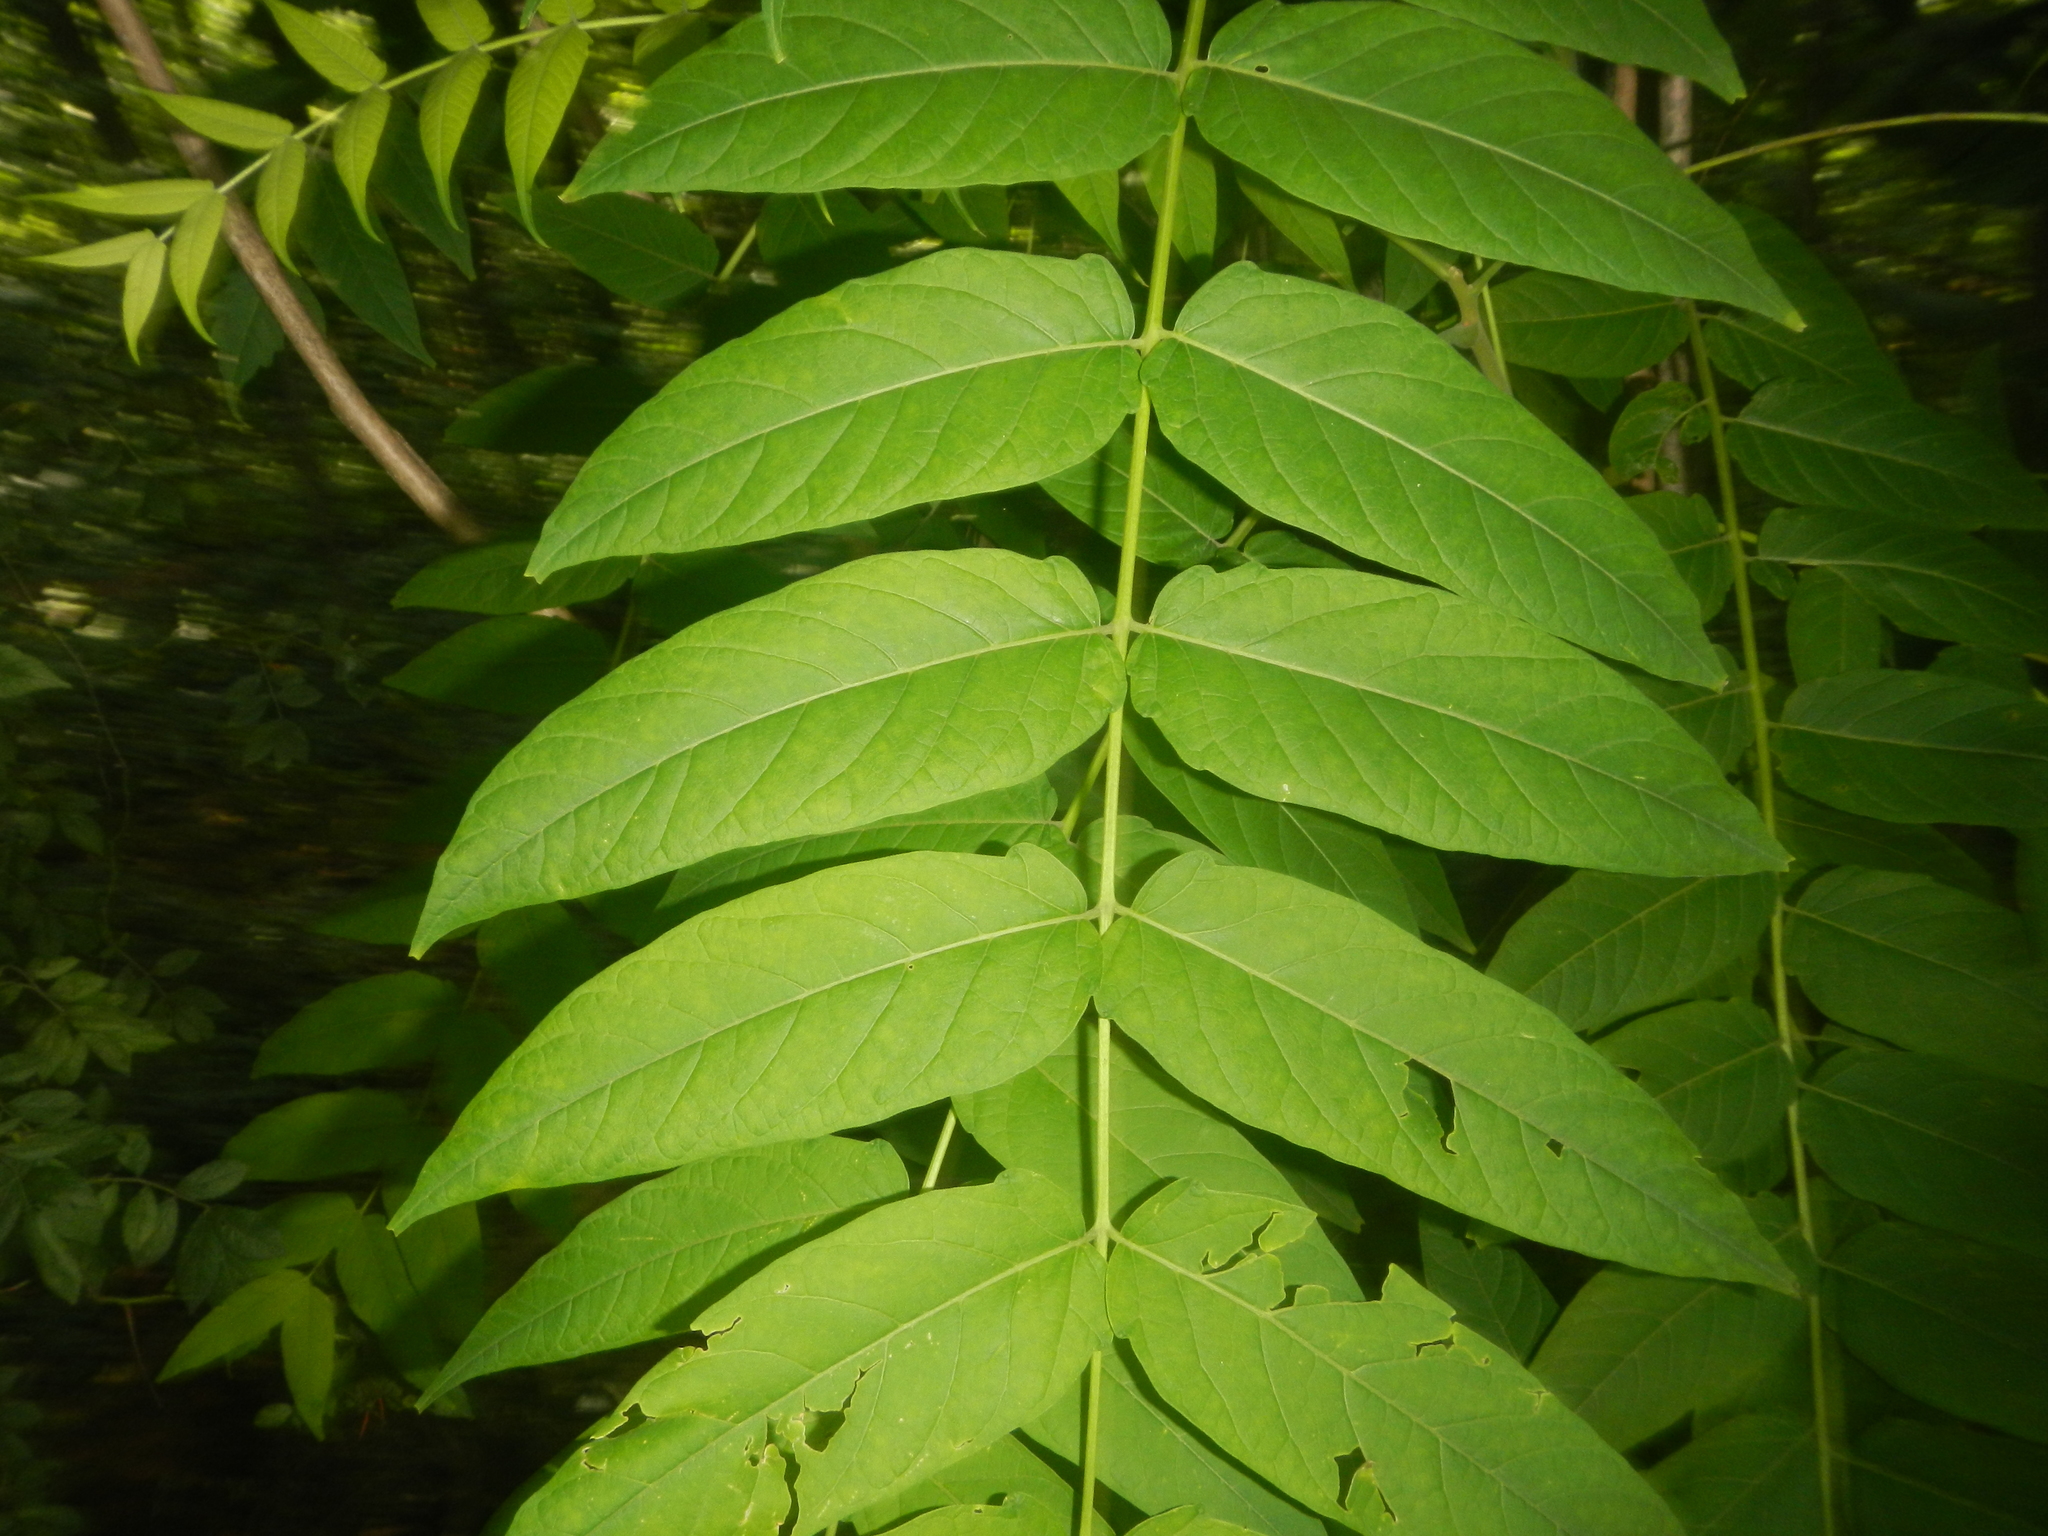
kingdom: Plantae
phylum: Tracheophyta
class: Magnoliopsida
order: Sapindales
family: Simaroubaceae
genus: Ailanthus
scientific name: Ailanthus altissima
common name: Tree-of-heaven
